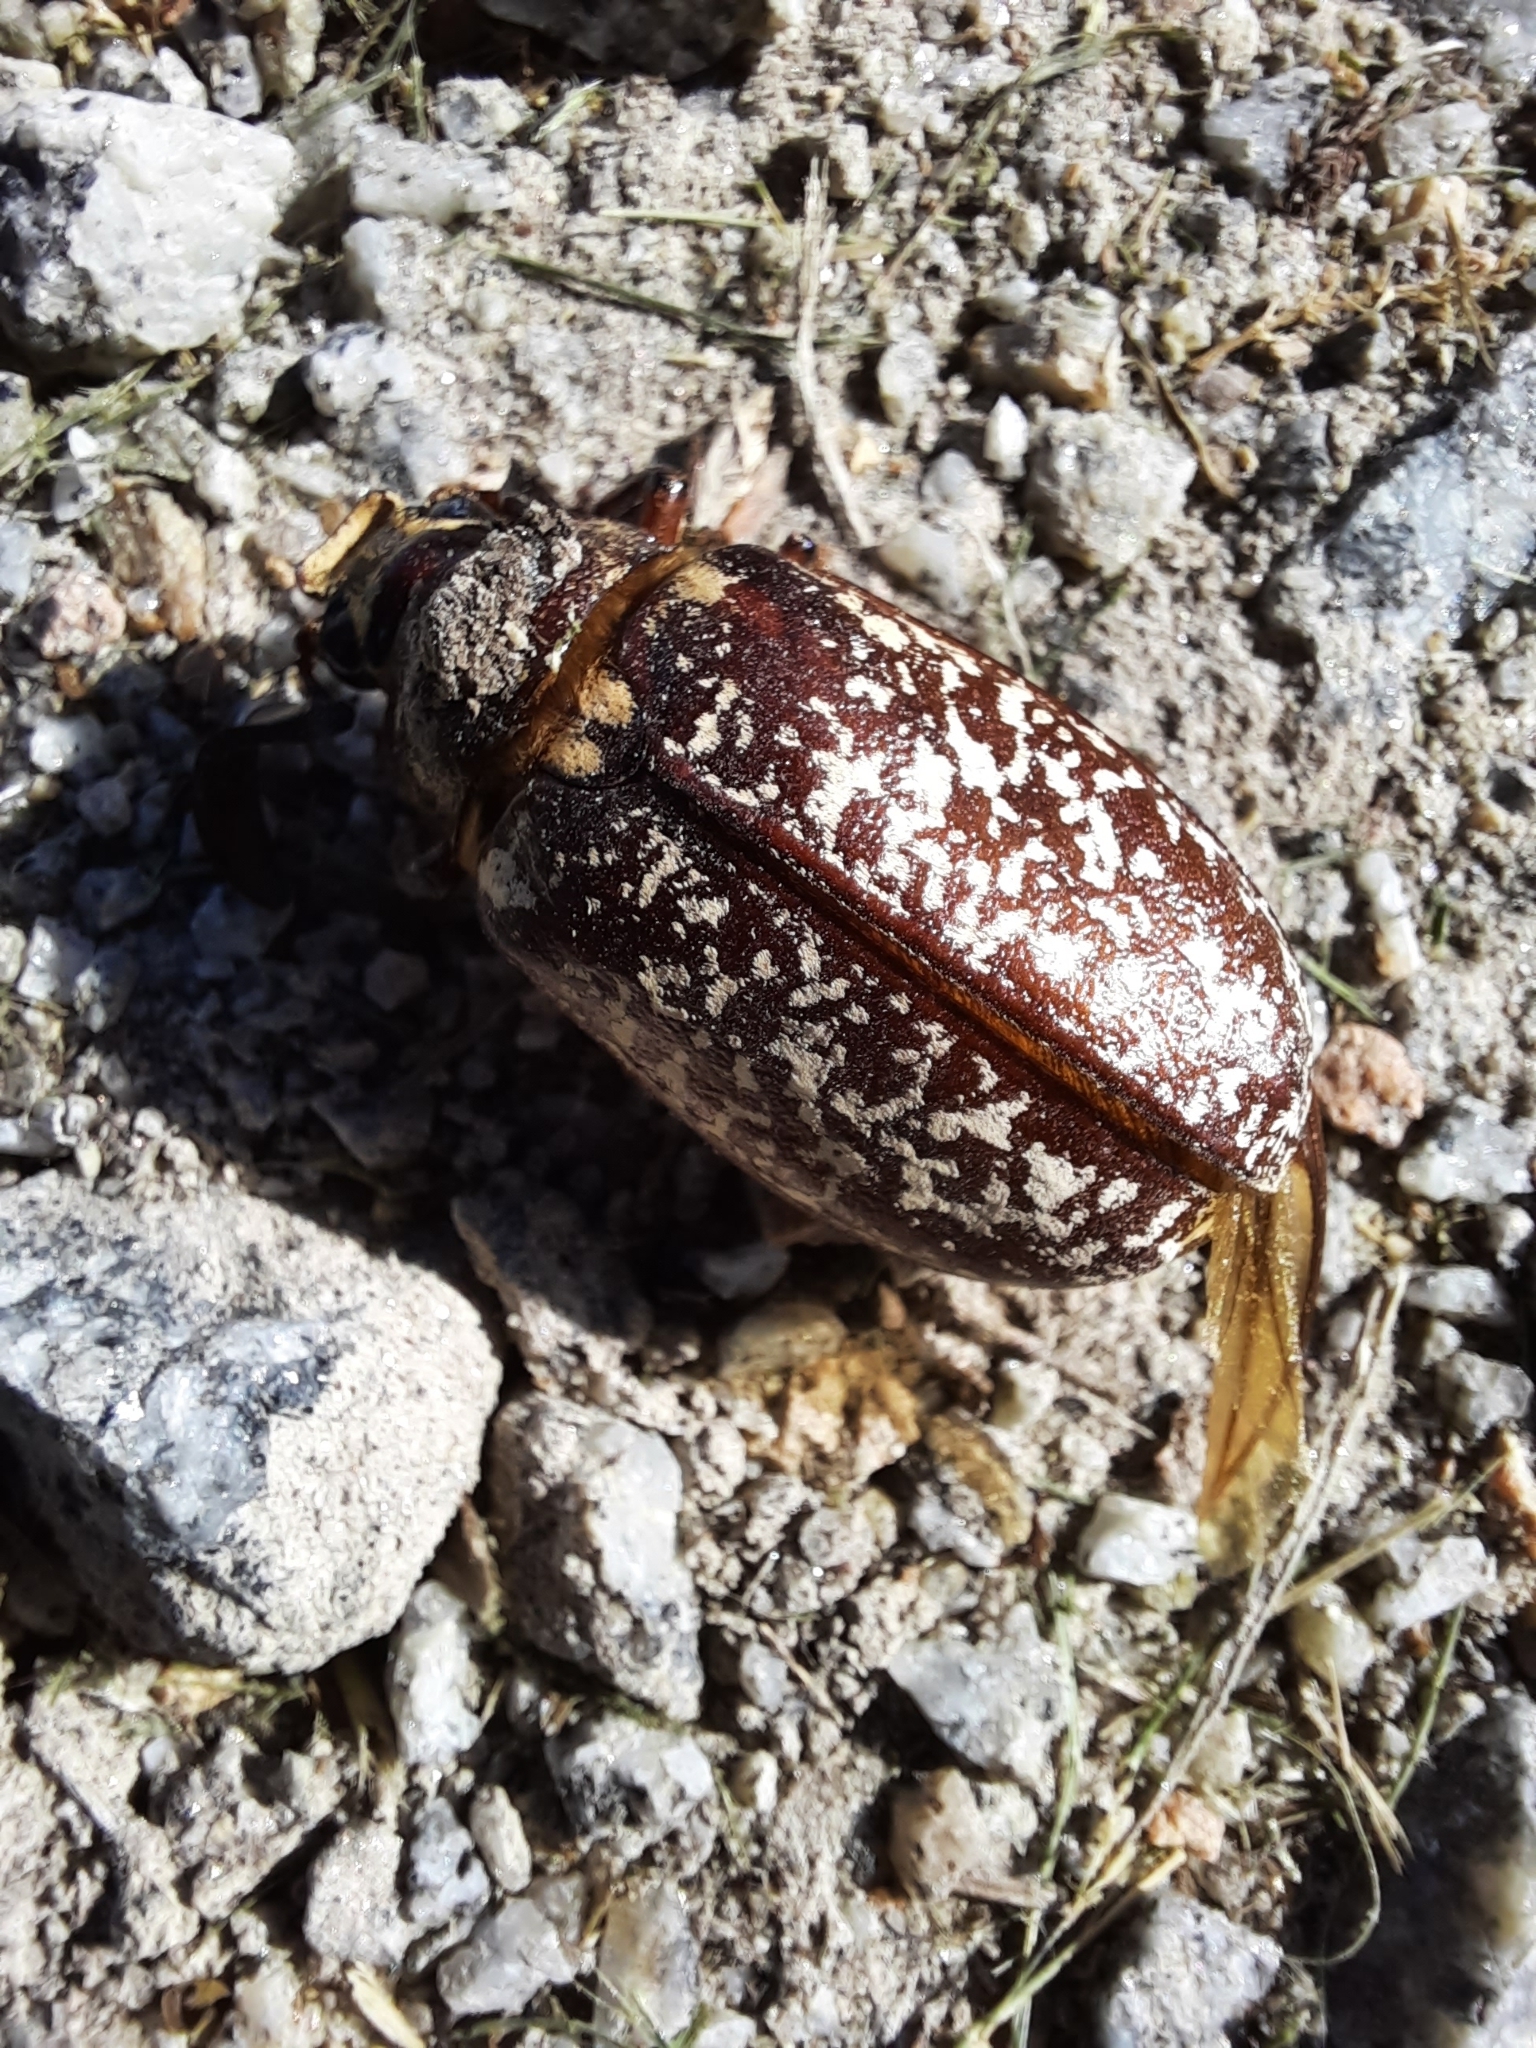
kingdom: Animalia
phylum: Arthropoda
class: Insecta
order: Coleoptera
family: Scarabaeidae
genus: Polyphylla
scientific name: Polyphylla fullo
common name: Pine chafer
